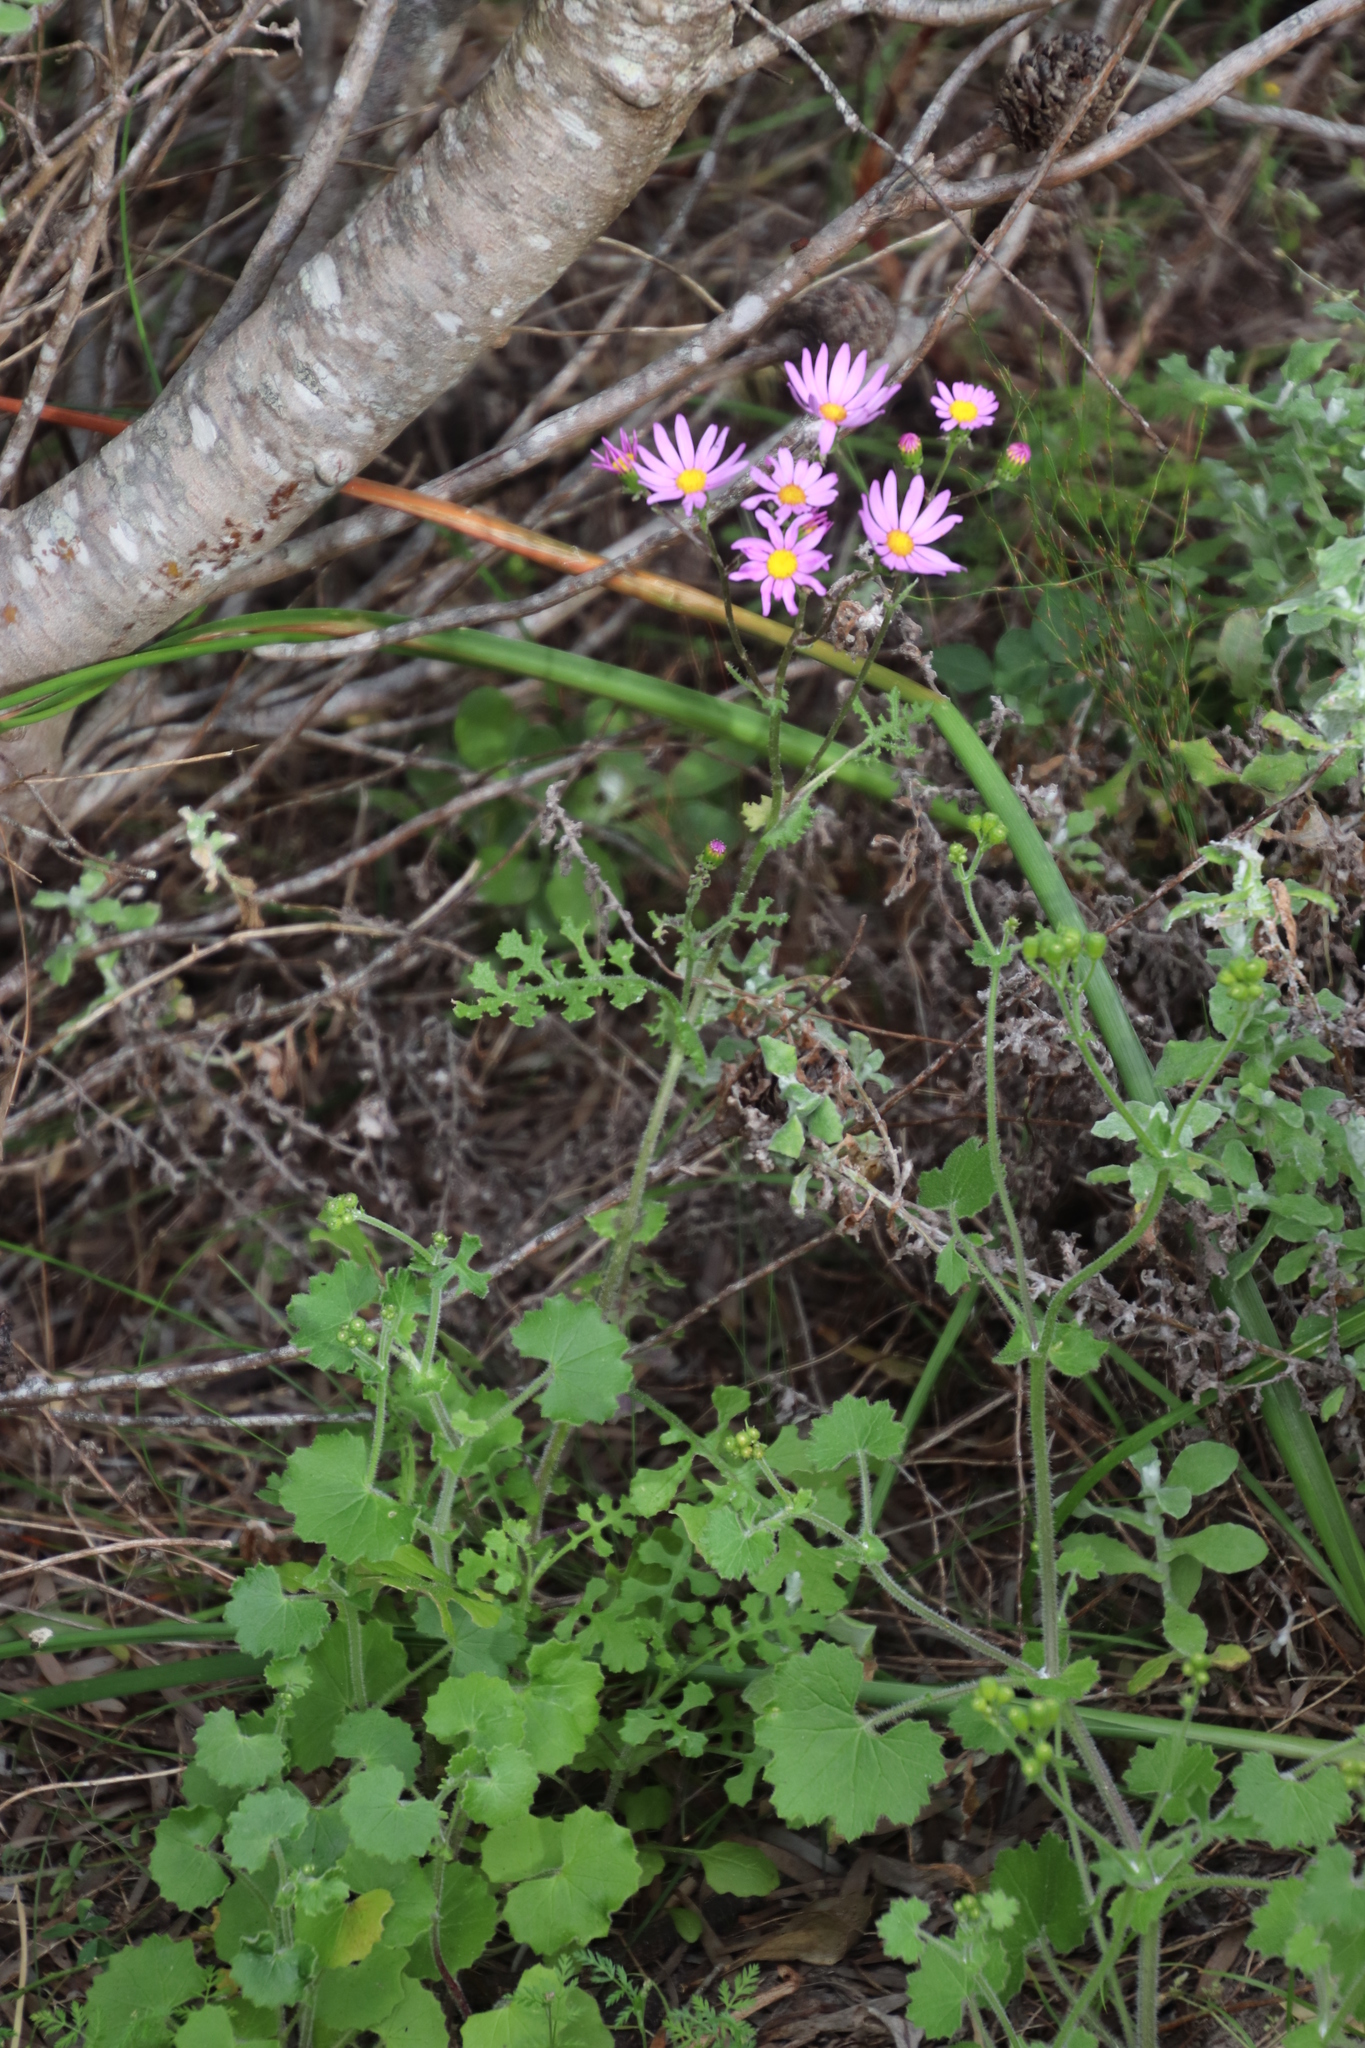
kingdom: Plantae
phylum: Tracheophyta
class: Magnoliopsida
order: Asterales
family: Asteraceae
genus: Senecio
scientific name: Senecio elegans
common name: Purple groundsel
